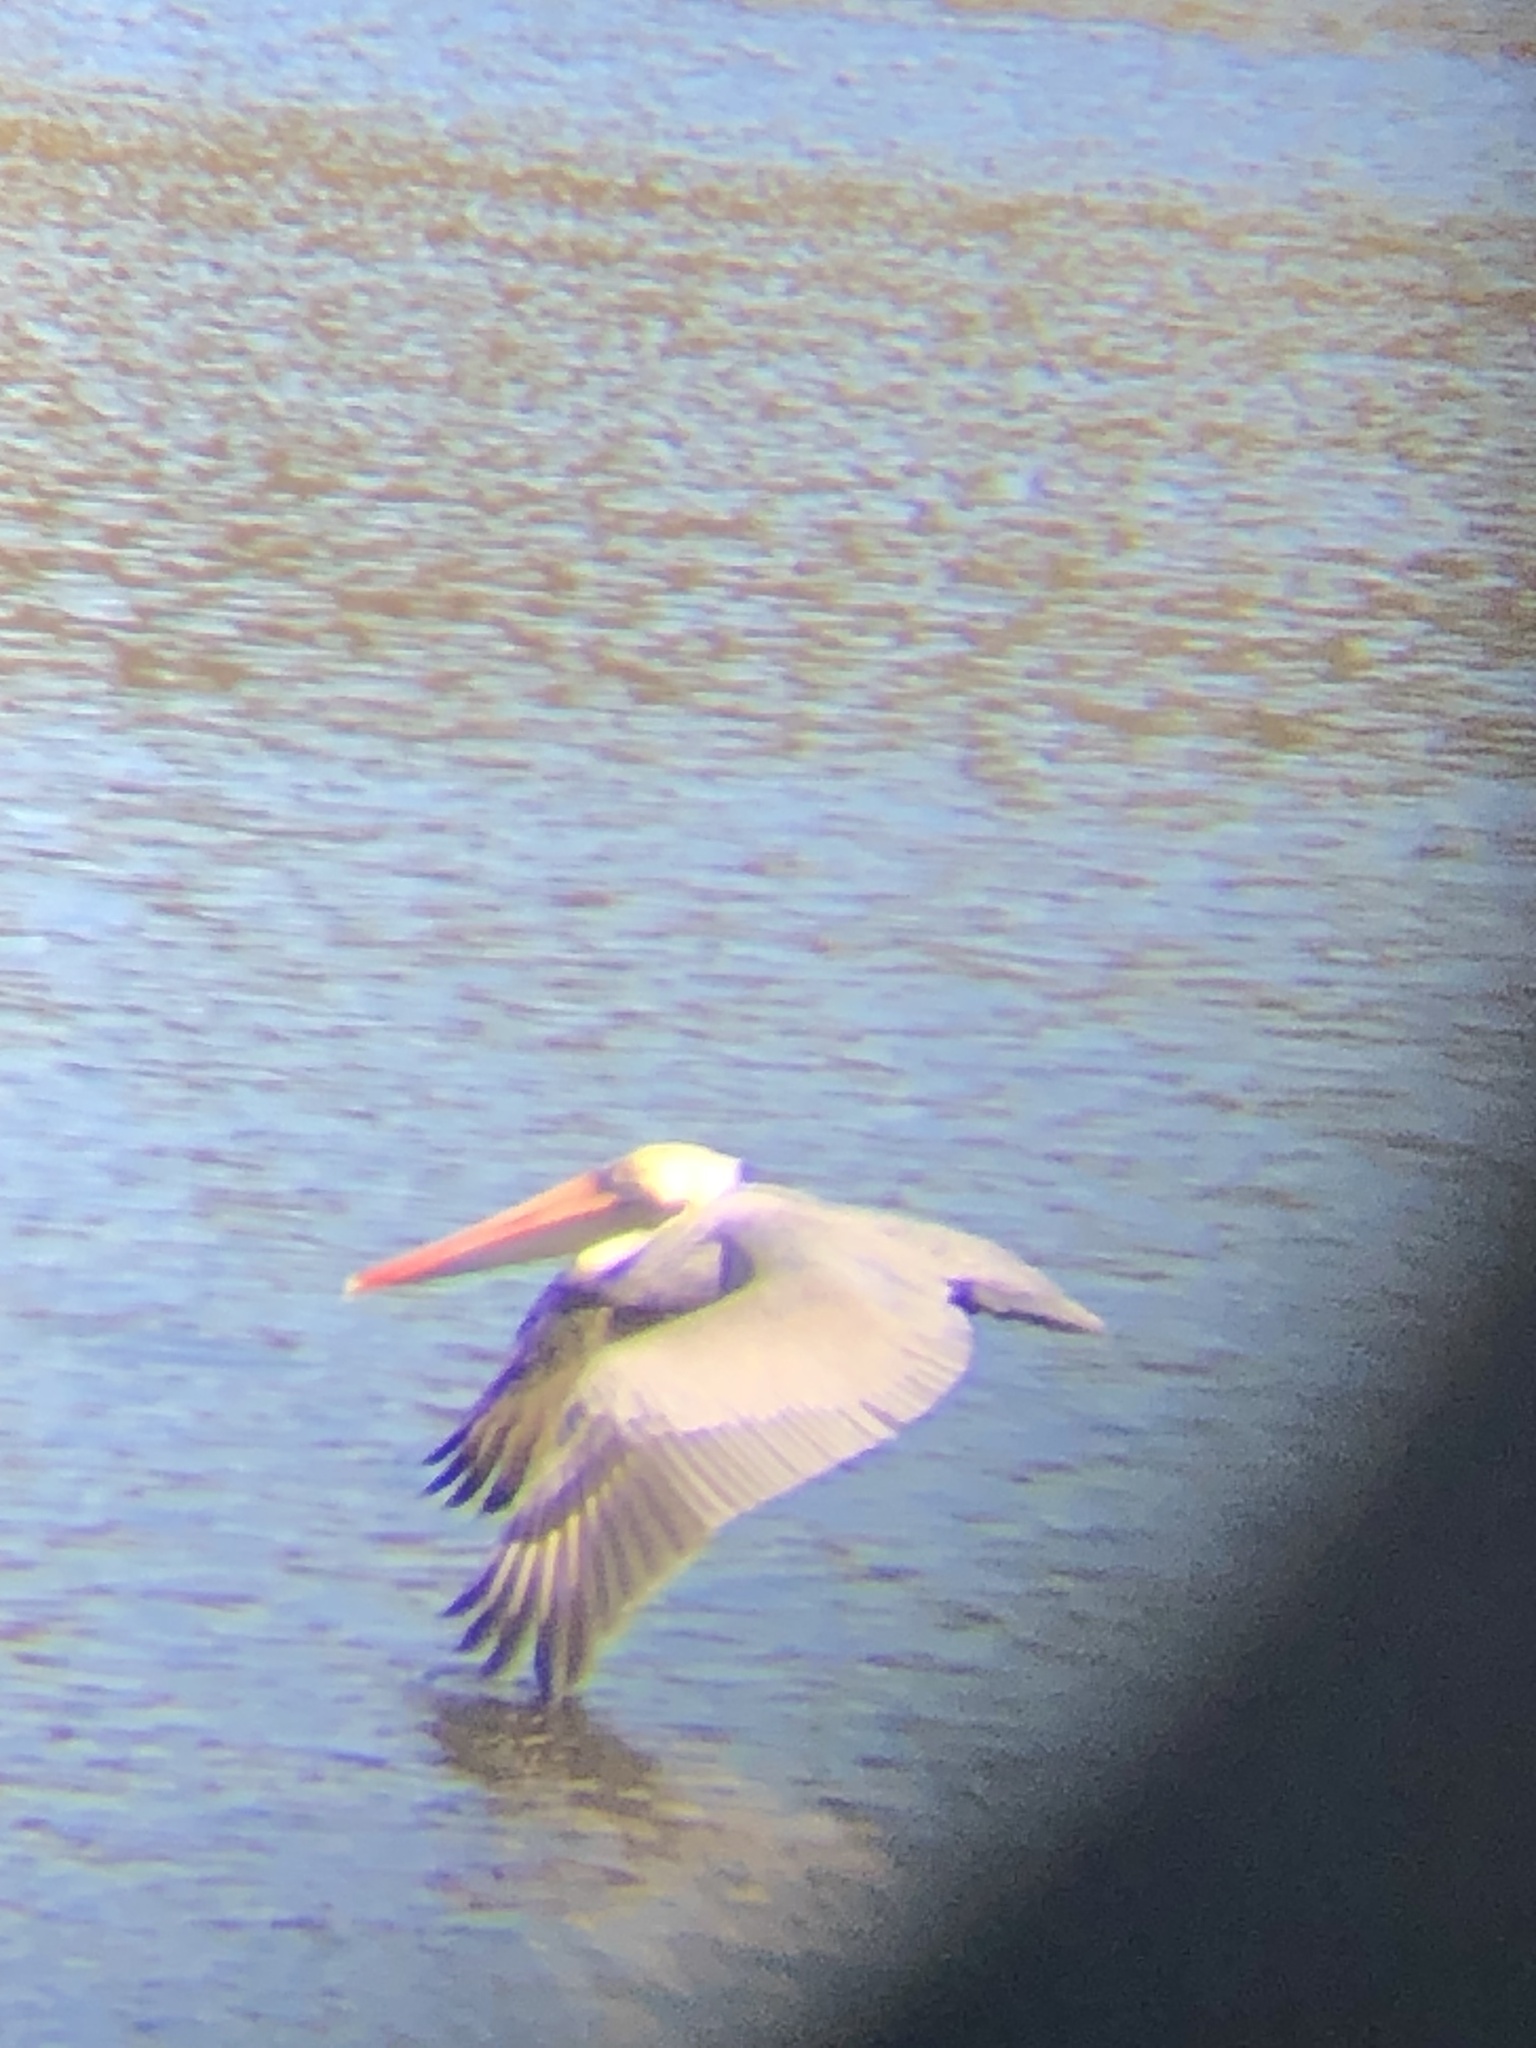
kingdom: Animalia
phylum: Chordata
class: Aves
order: Pelecaniformes
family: Pelecanidae
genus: Pelecanus
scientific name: Pelecanus occidentalis
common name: Brown pelican
